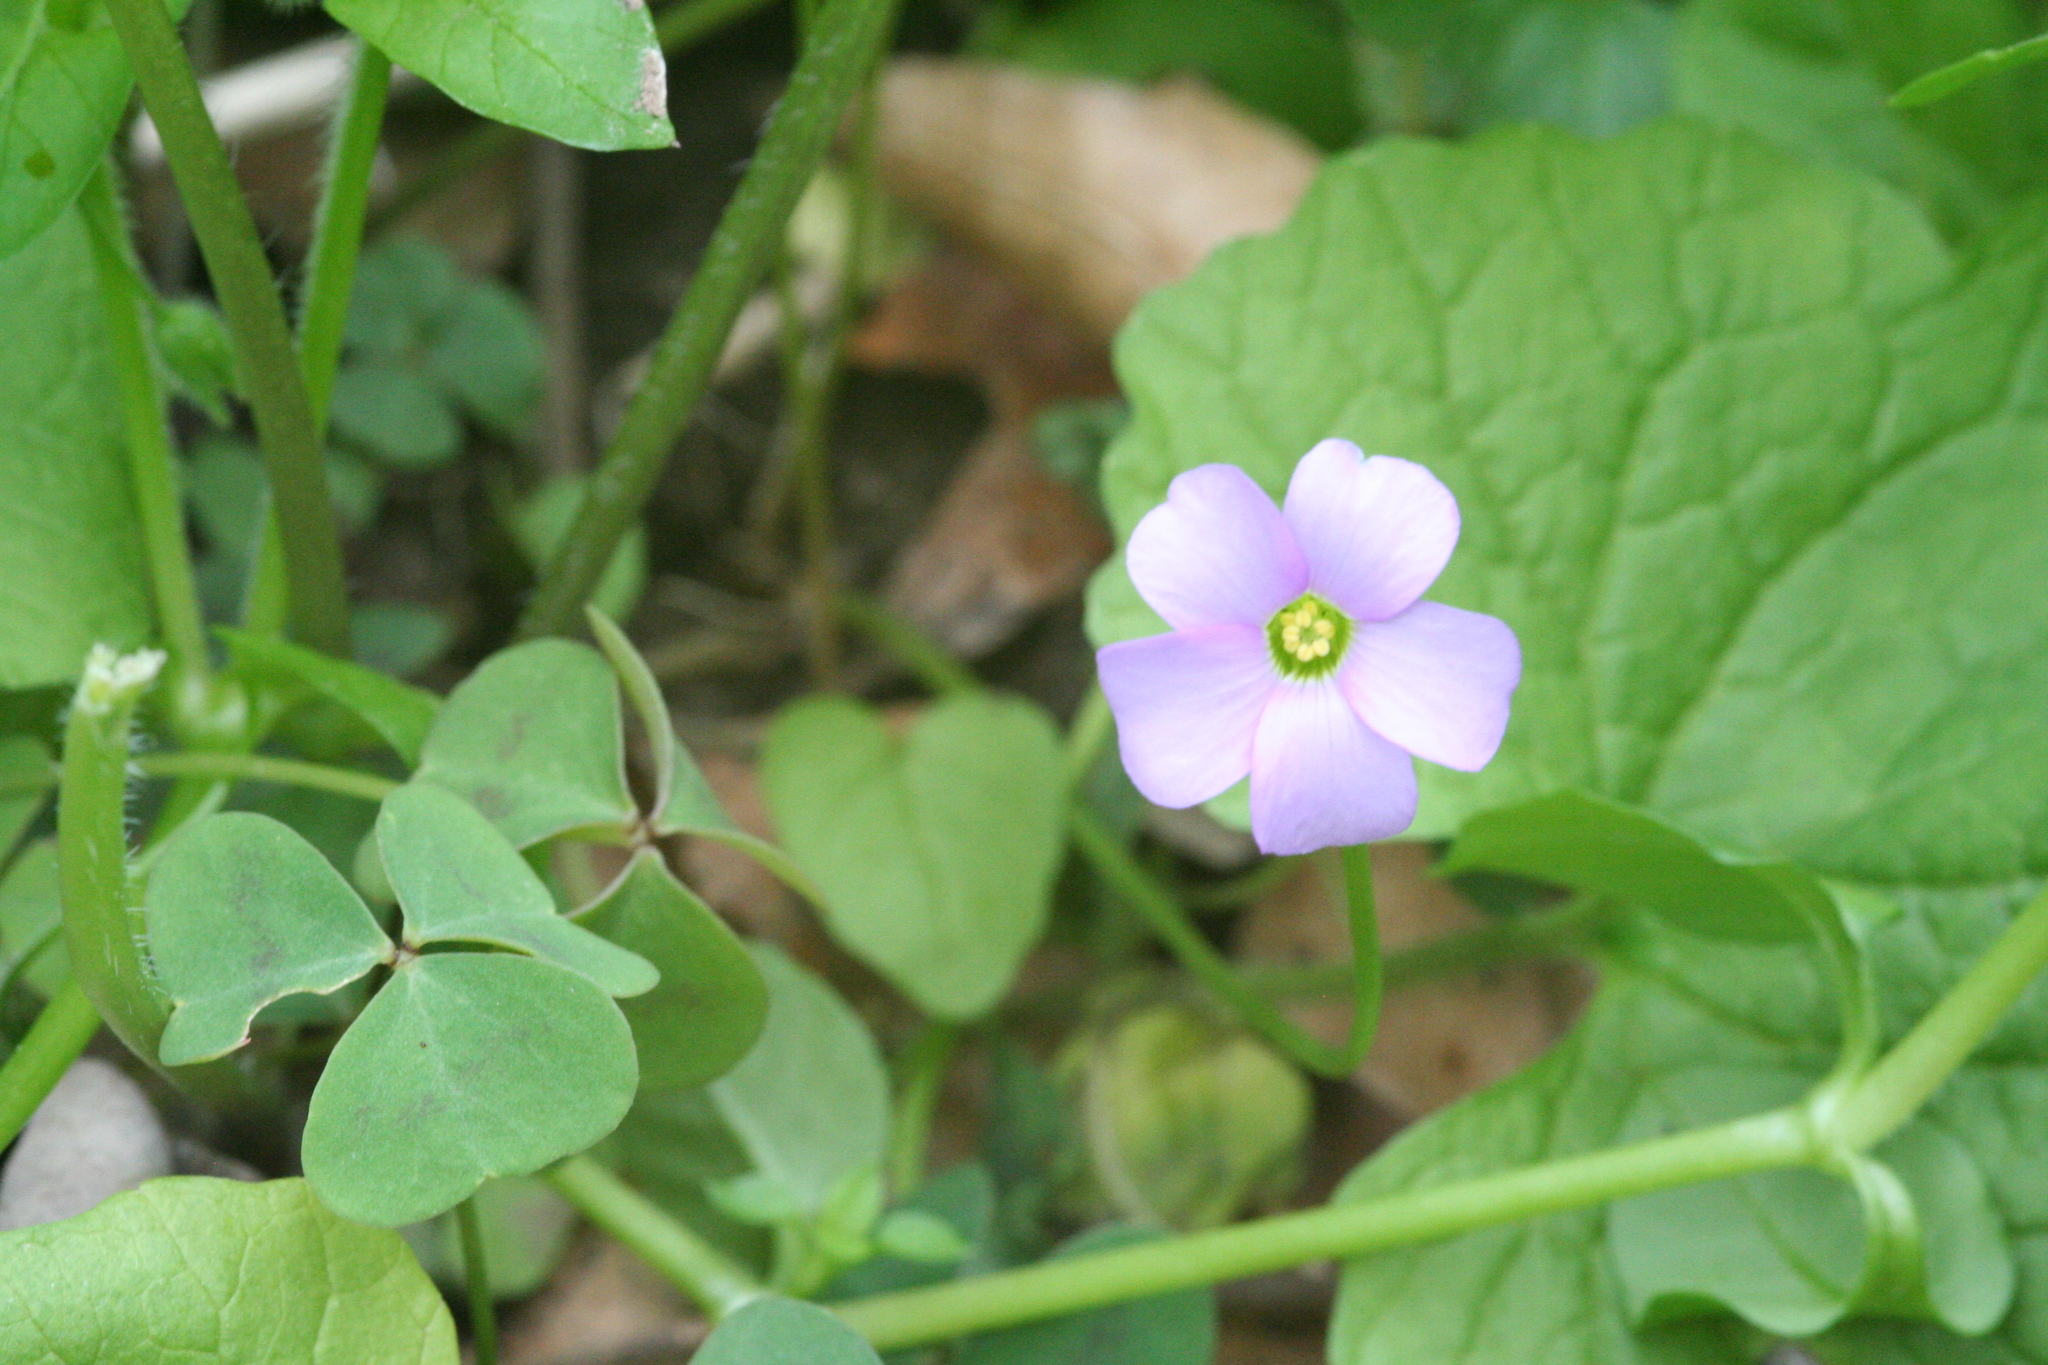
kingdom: Plantae
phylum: Tracheophyta
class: Magnoliopsida
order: Oxalidales
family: Oxalidaceae
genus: Oxalis
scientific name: Oxalis violacea
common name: Violet wood-sorrel
